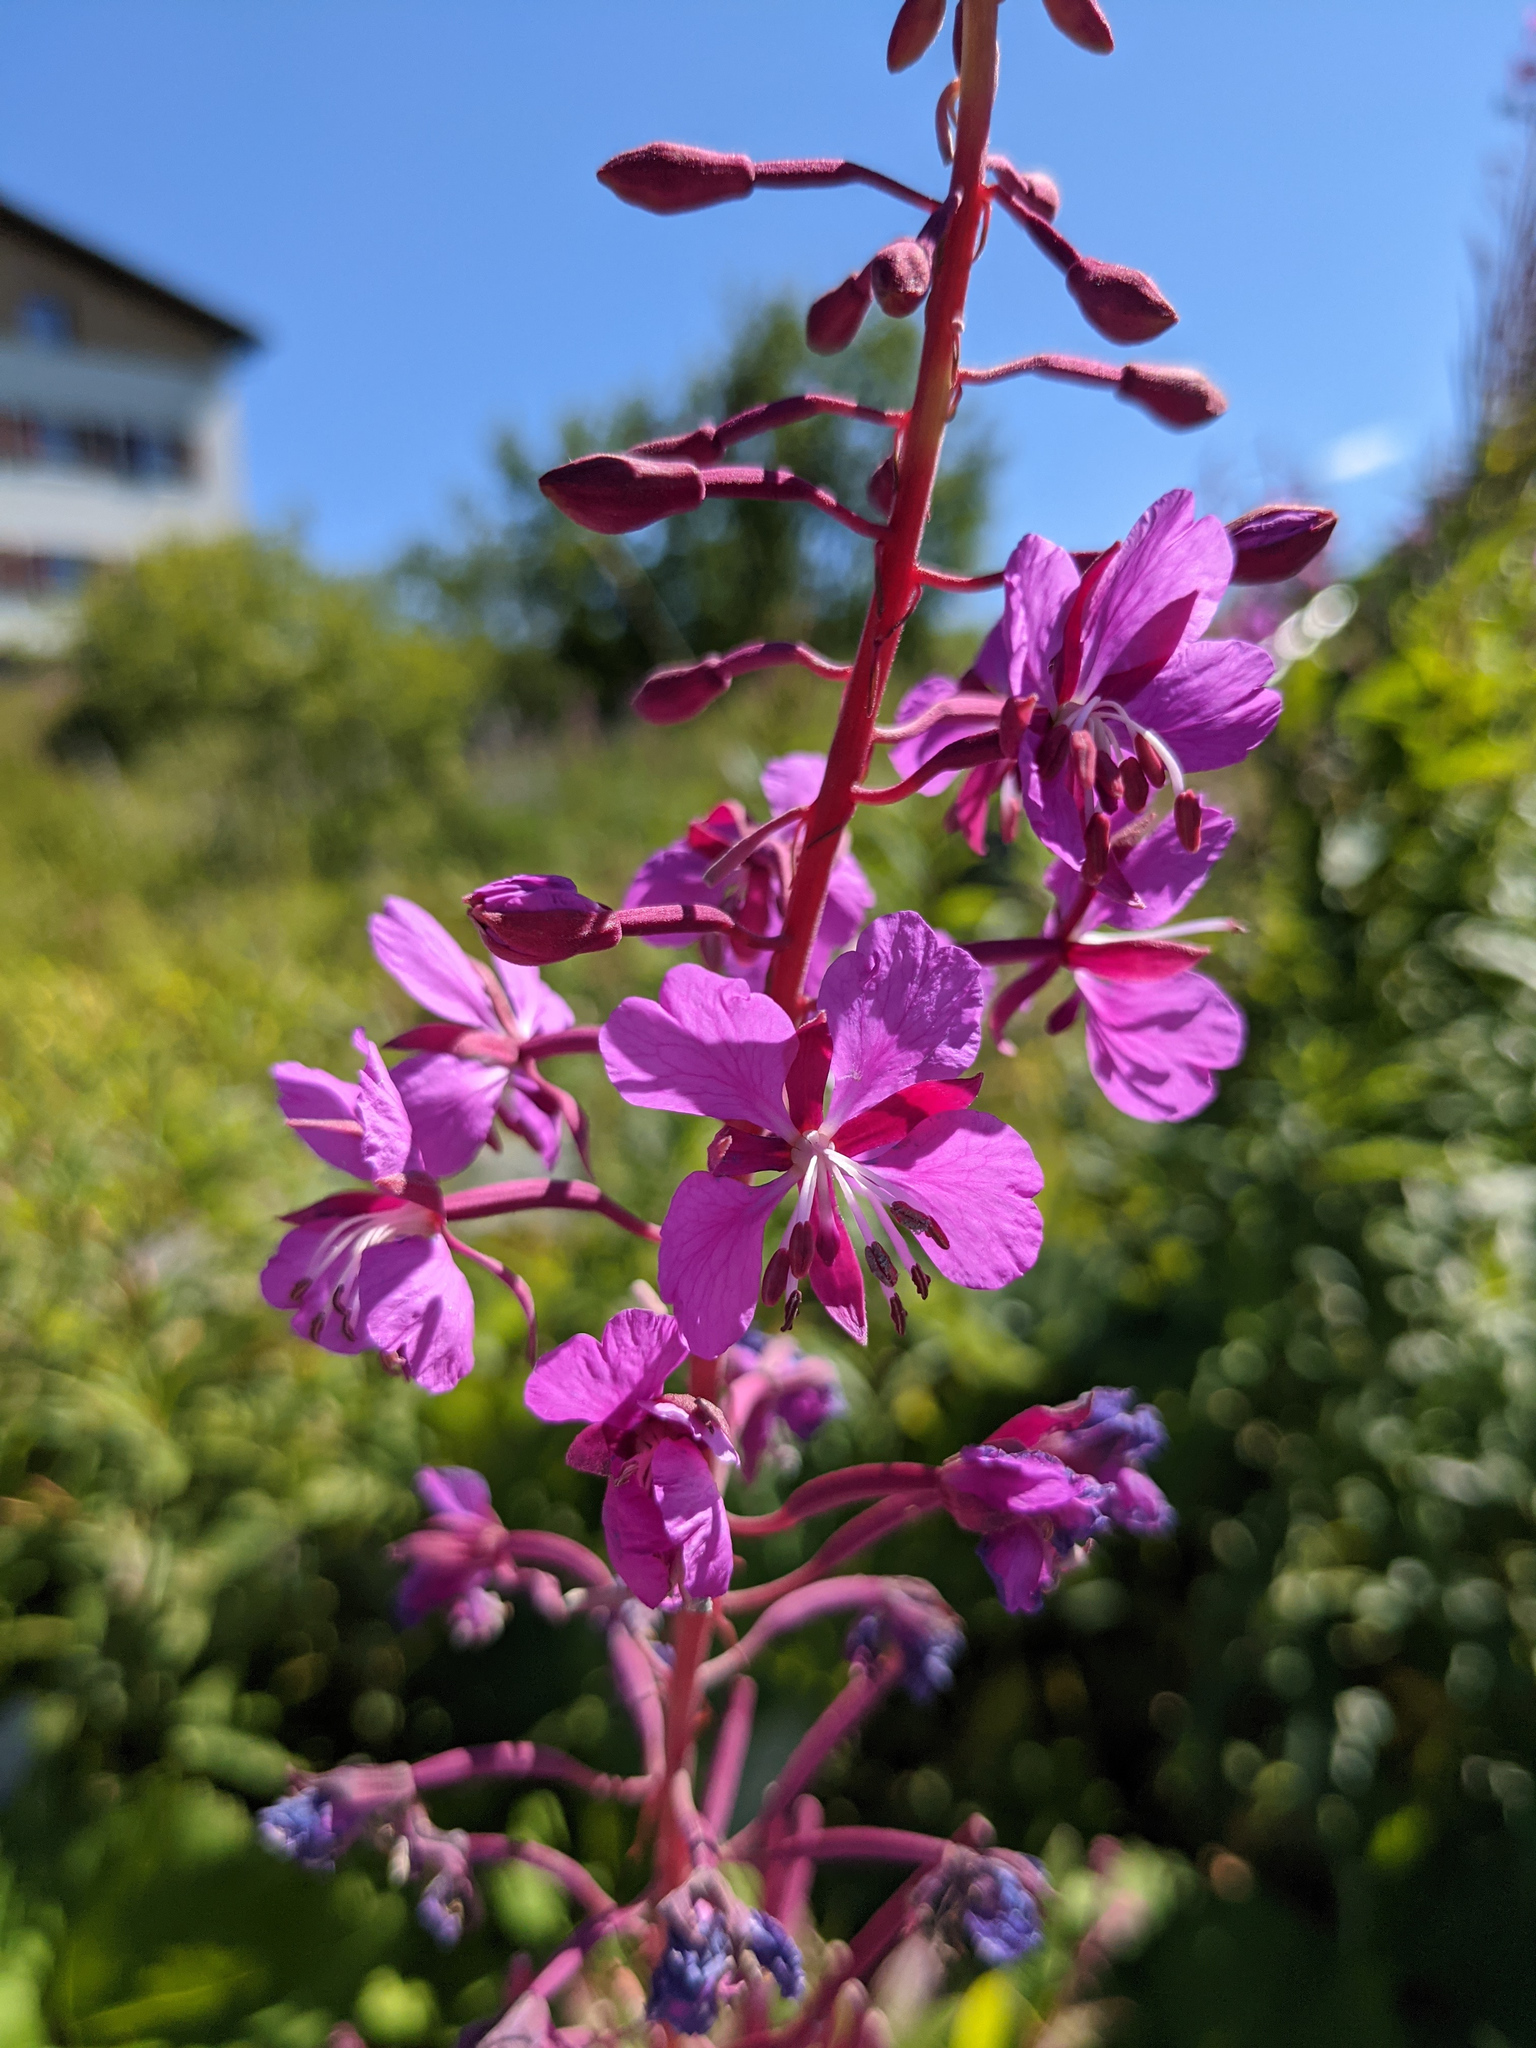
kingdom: Plantae
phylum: Tracheophyta
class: Magnoliopsida
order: Myrtales
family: Onagraceae
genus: Chamaenerion
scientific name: Chamaenerion angustifolium
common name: Fireweed
